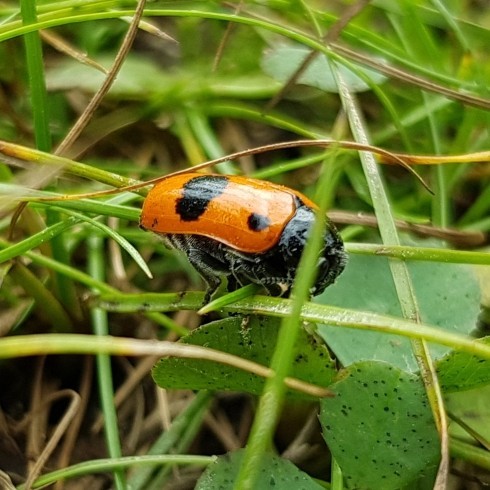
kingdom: Animalia
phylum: Arthropoda
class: Insecta
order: Coleoptera
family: Chrysomelidae
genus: Clytra
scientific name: Clytra laeviuscula
